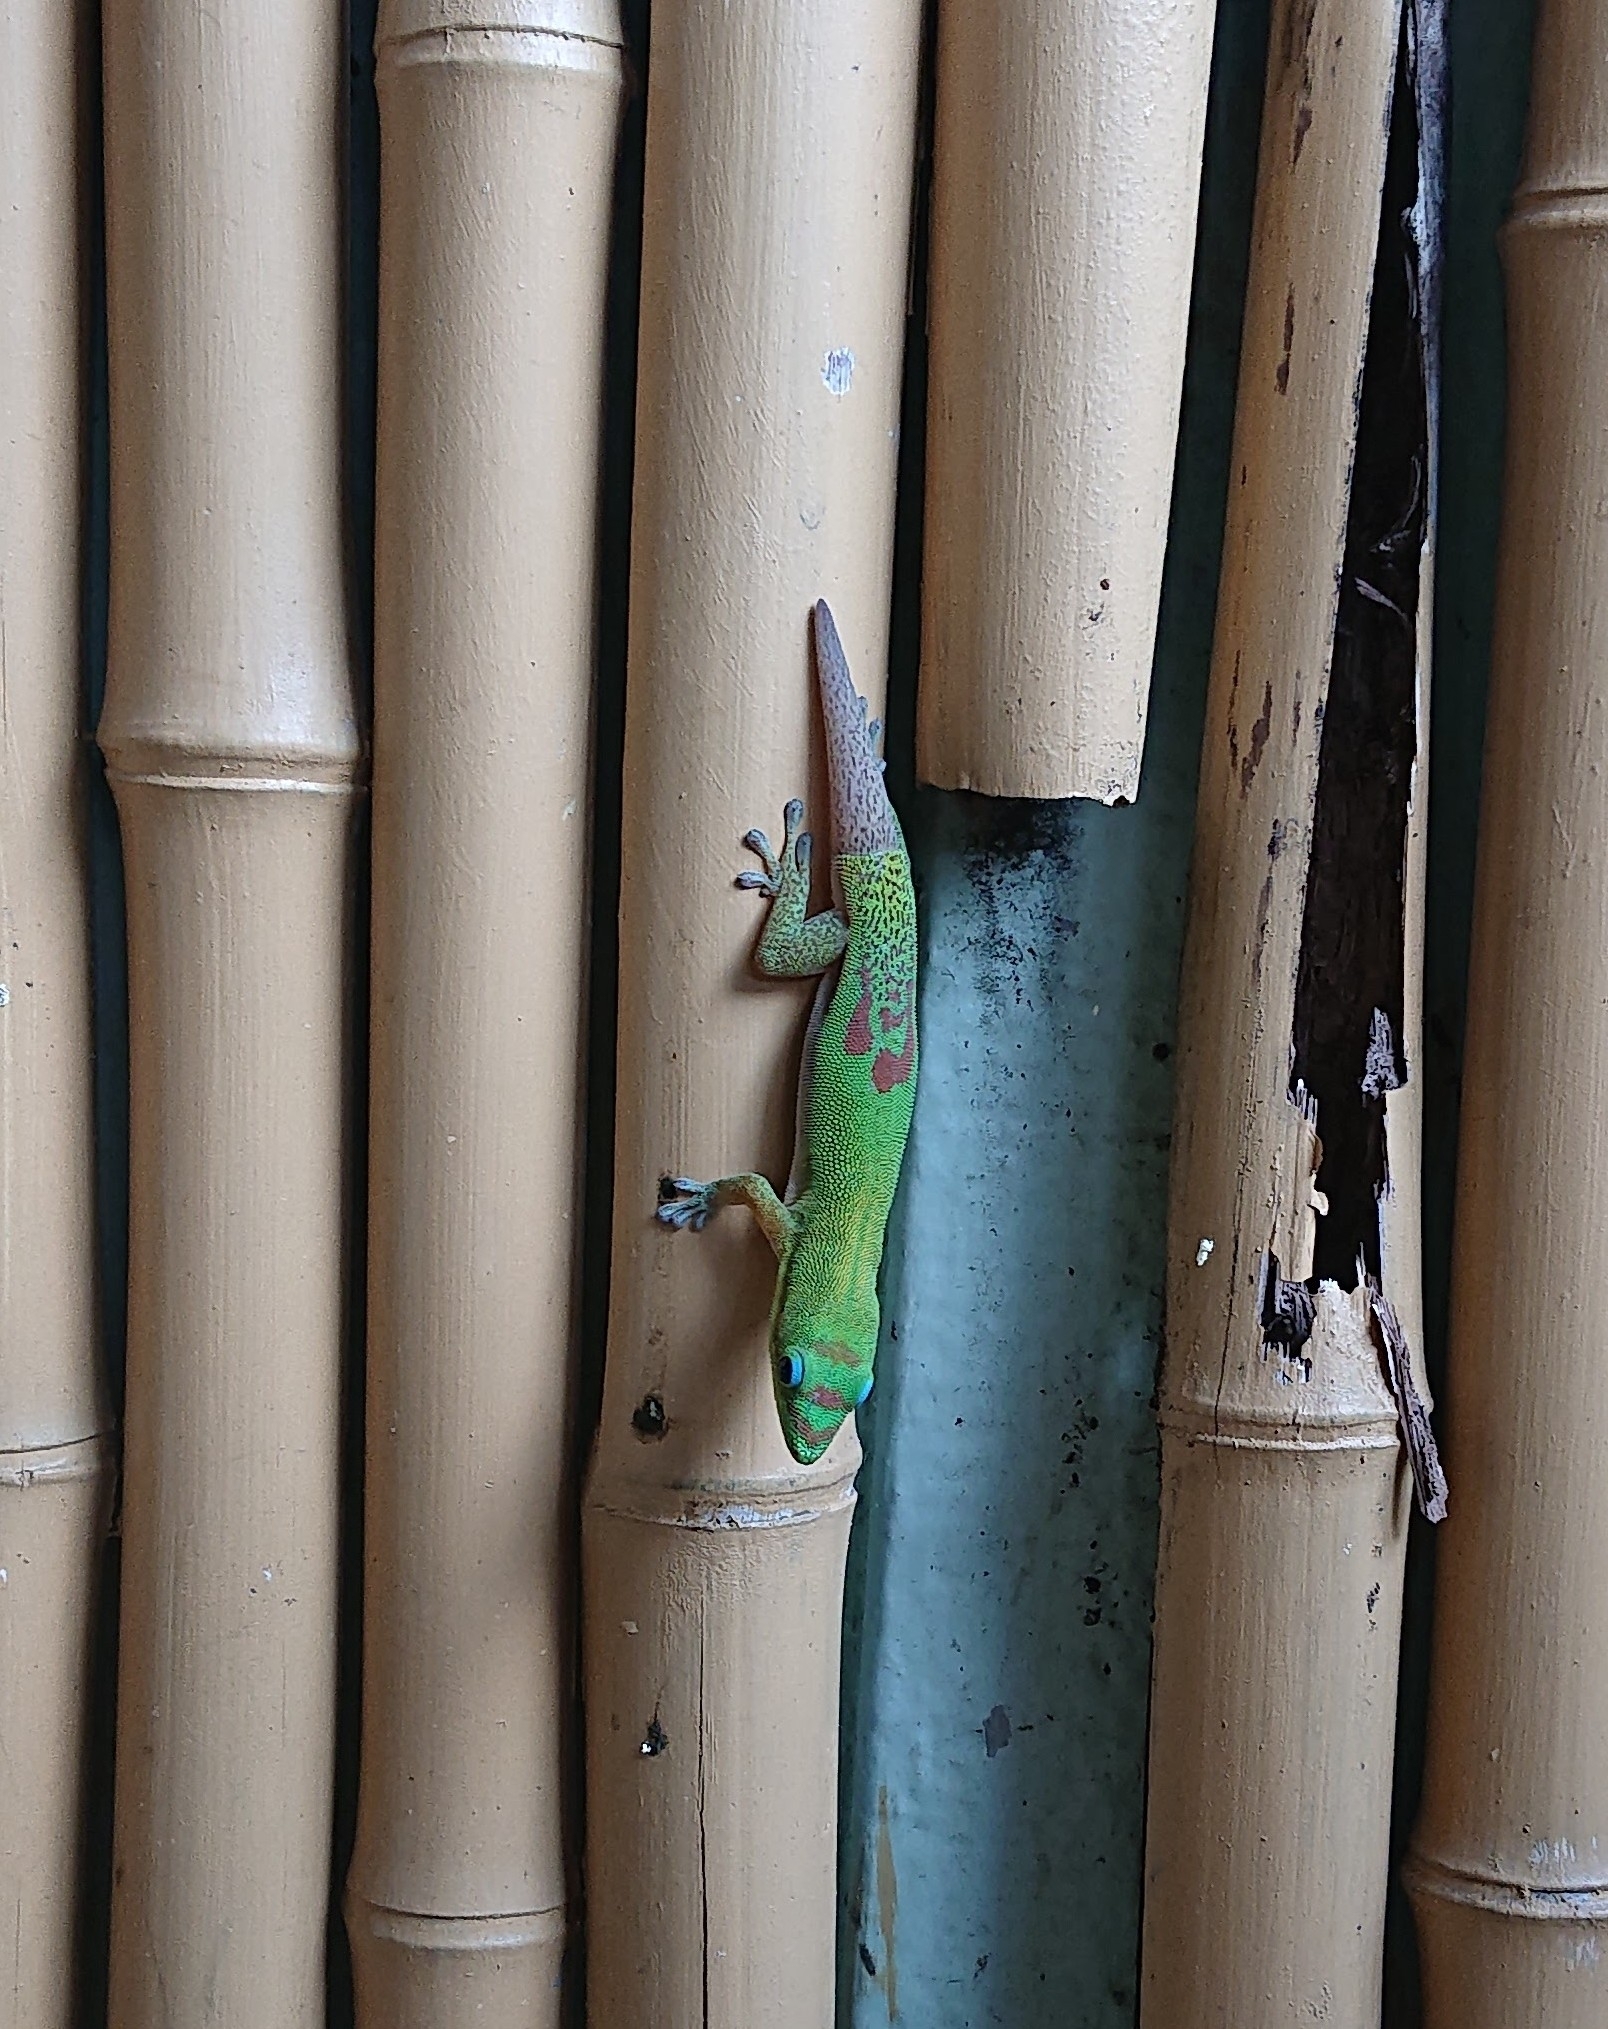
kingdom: Animalia
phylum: Chordata
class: Squamata
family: Gekkonidae
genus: Phelsuma
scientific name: Phelsuma laticauda
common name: Gold dust day gecko
